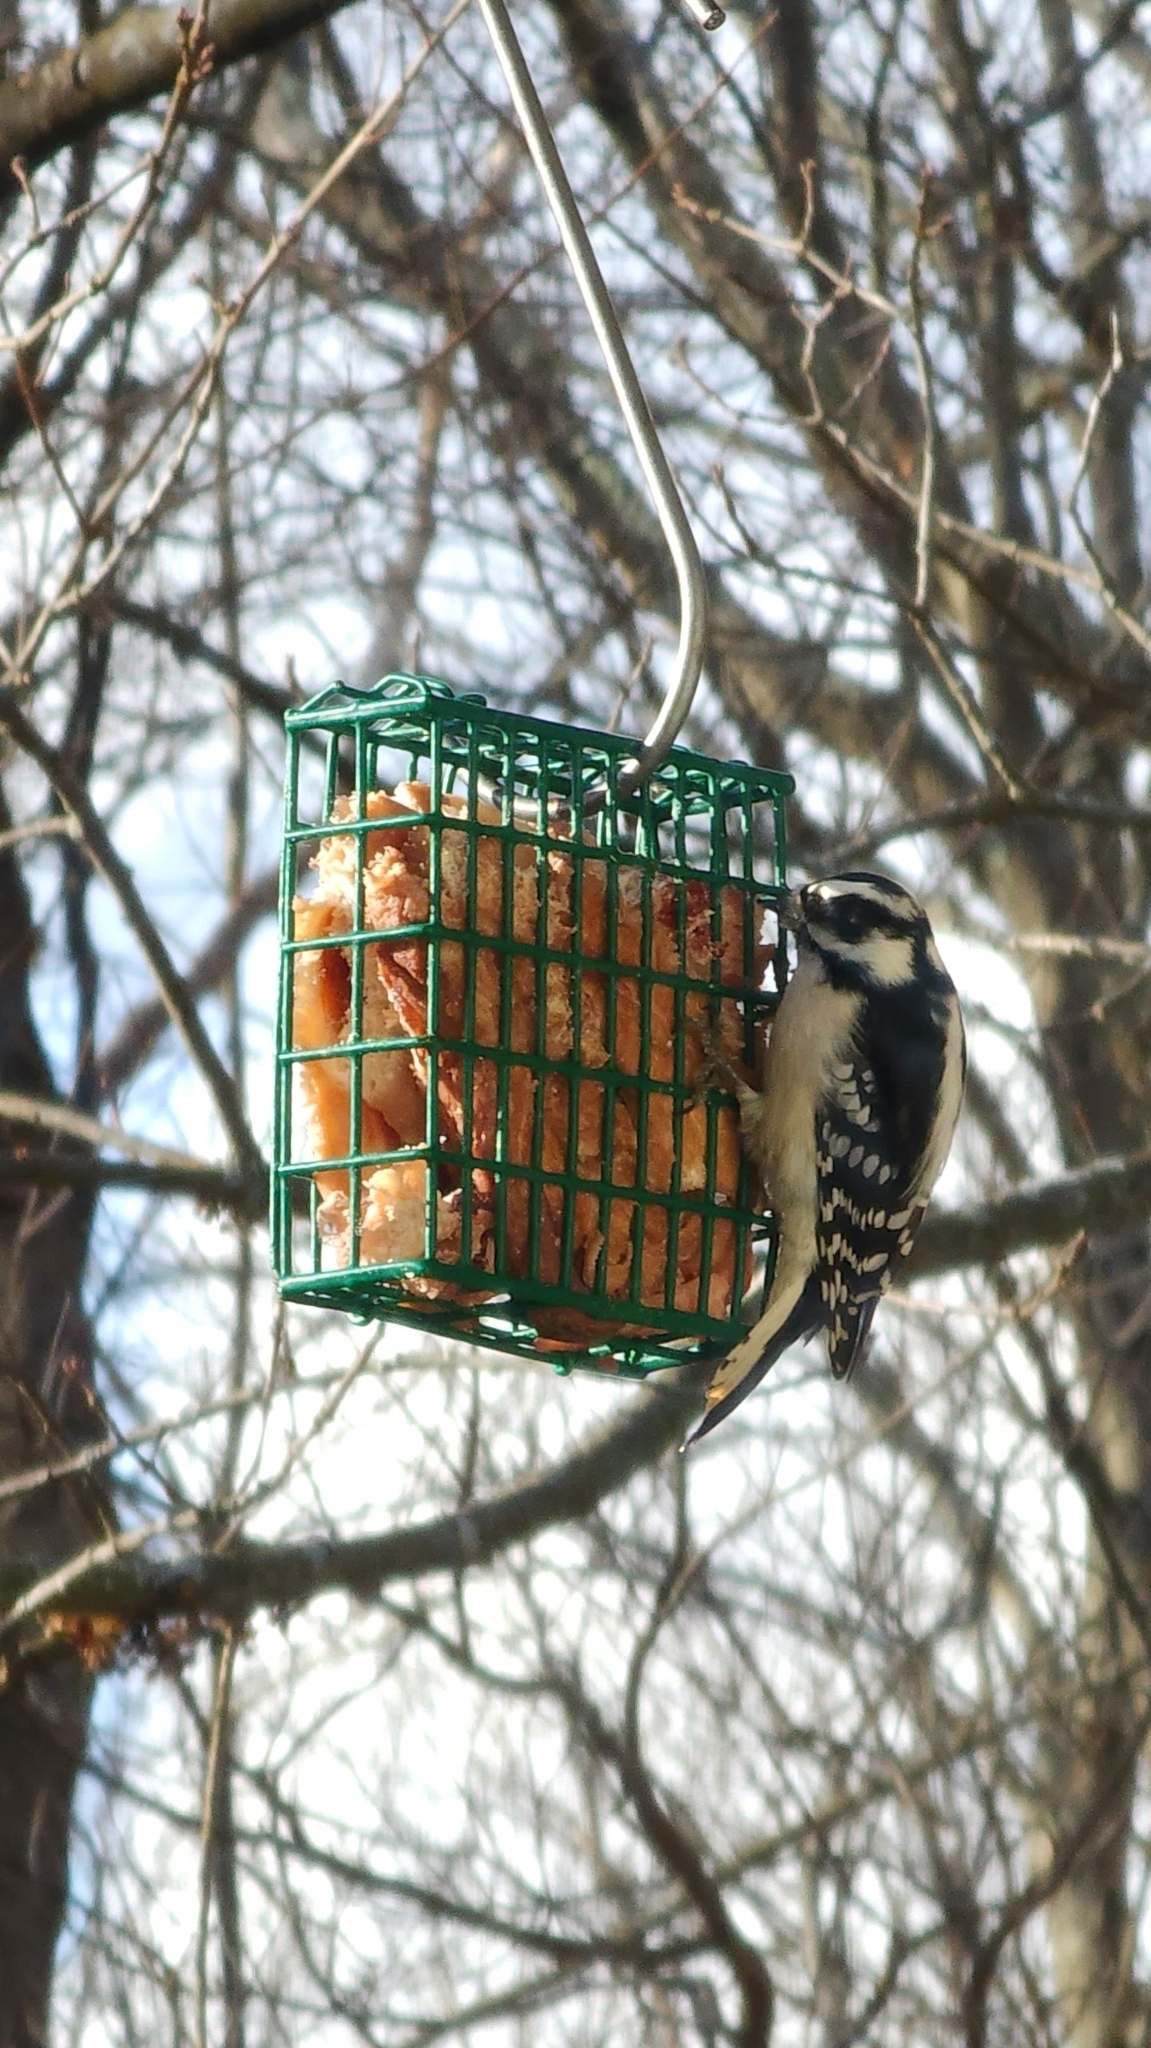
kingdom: Animalia
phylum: Chordata
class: Aves
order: Piciformes
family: Picidae
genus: Dryobates
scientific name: Dryobates pubescens
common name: Downy woodpecker
